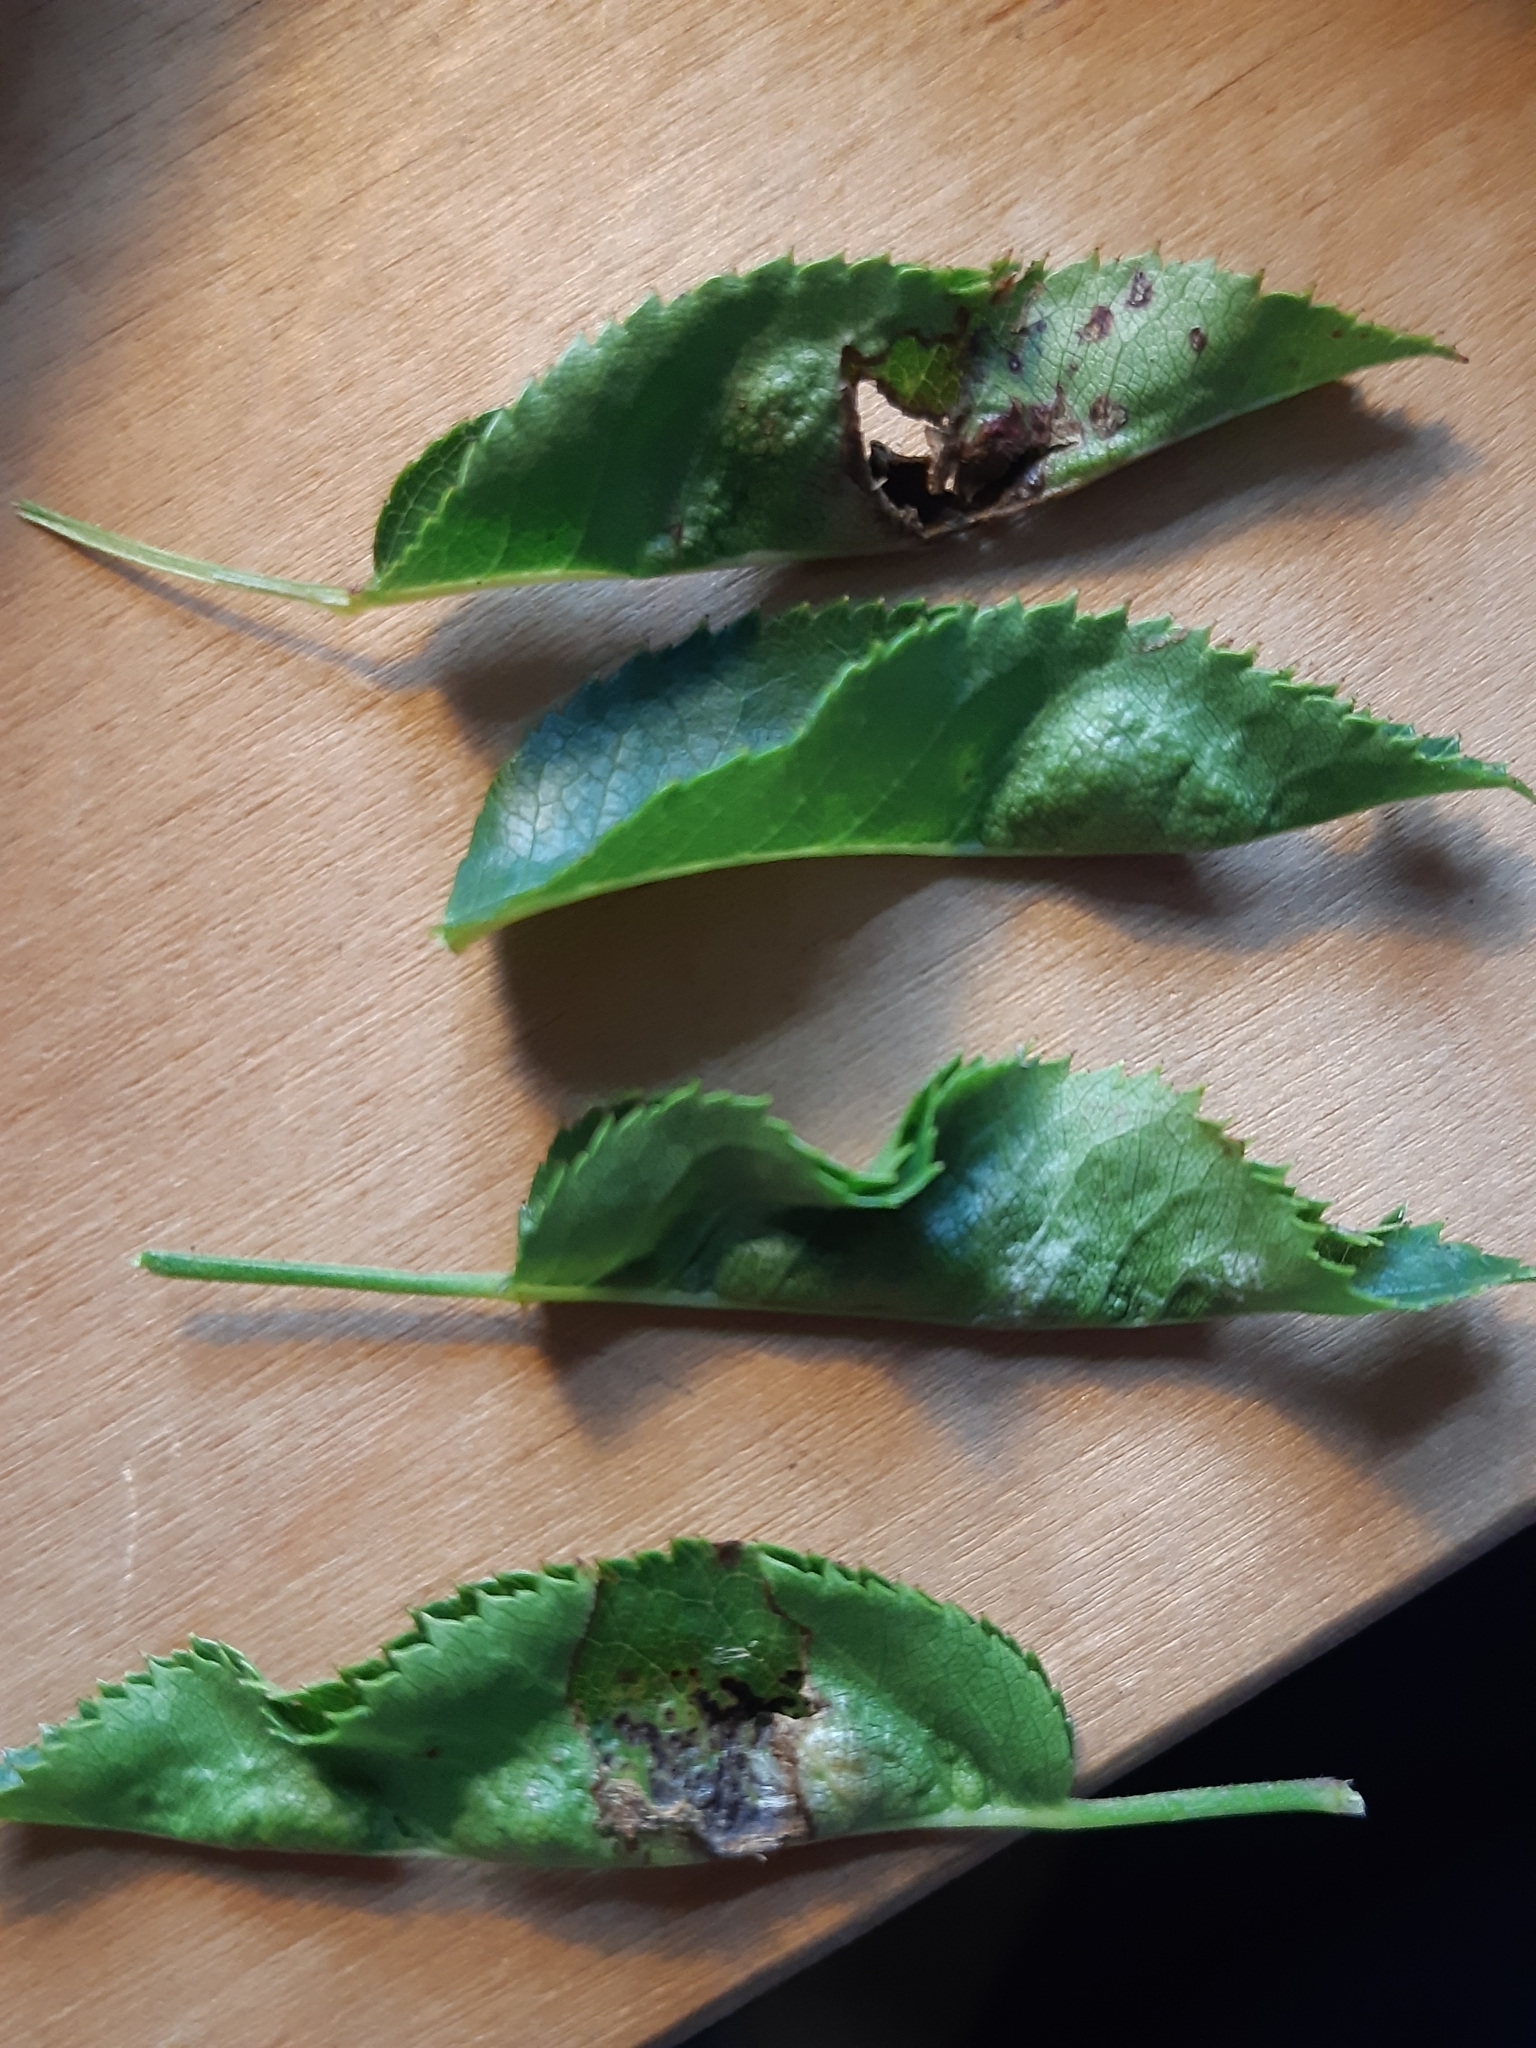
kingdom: Animalia
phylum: Arthropoda
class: Insecta
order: Diptera
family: Cecidomyiidae
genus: Wachtliella
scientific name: Wachtliella rosae
